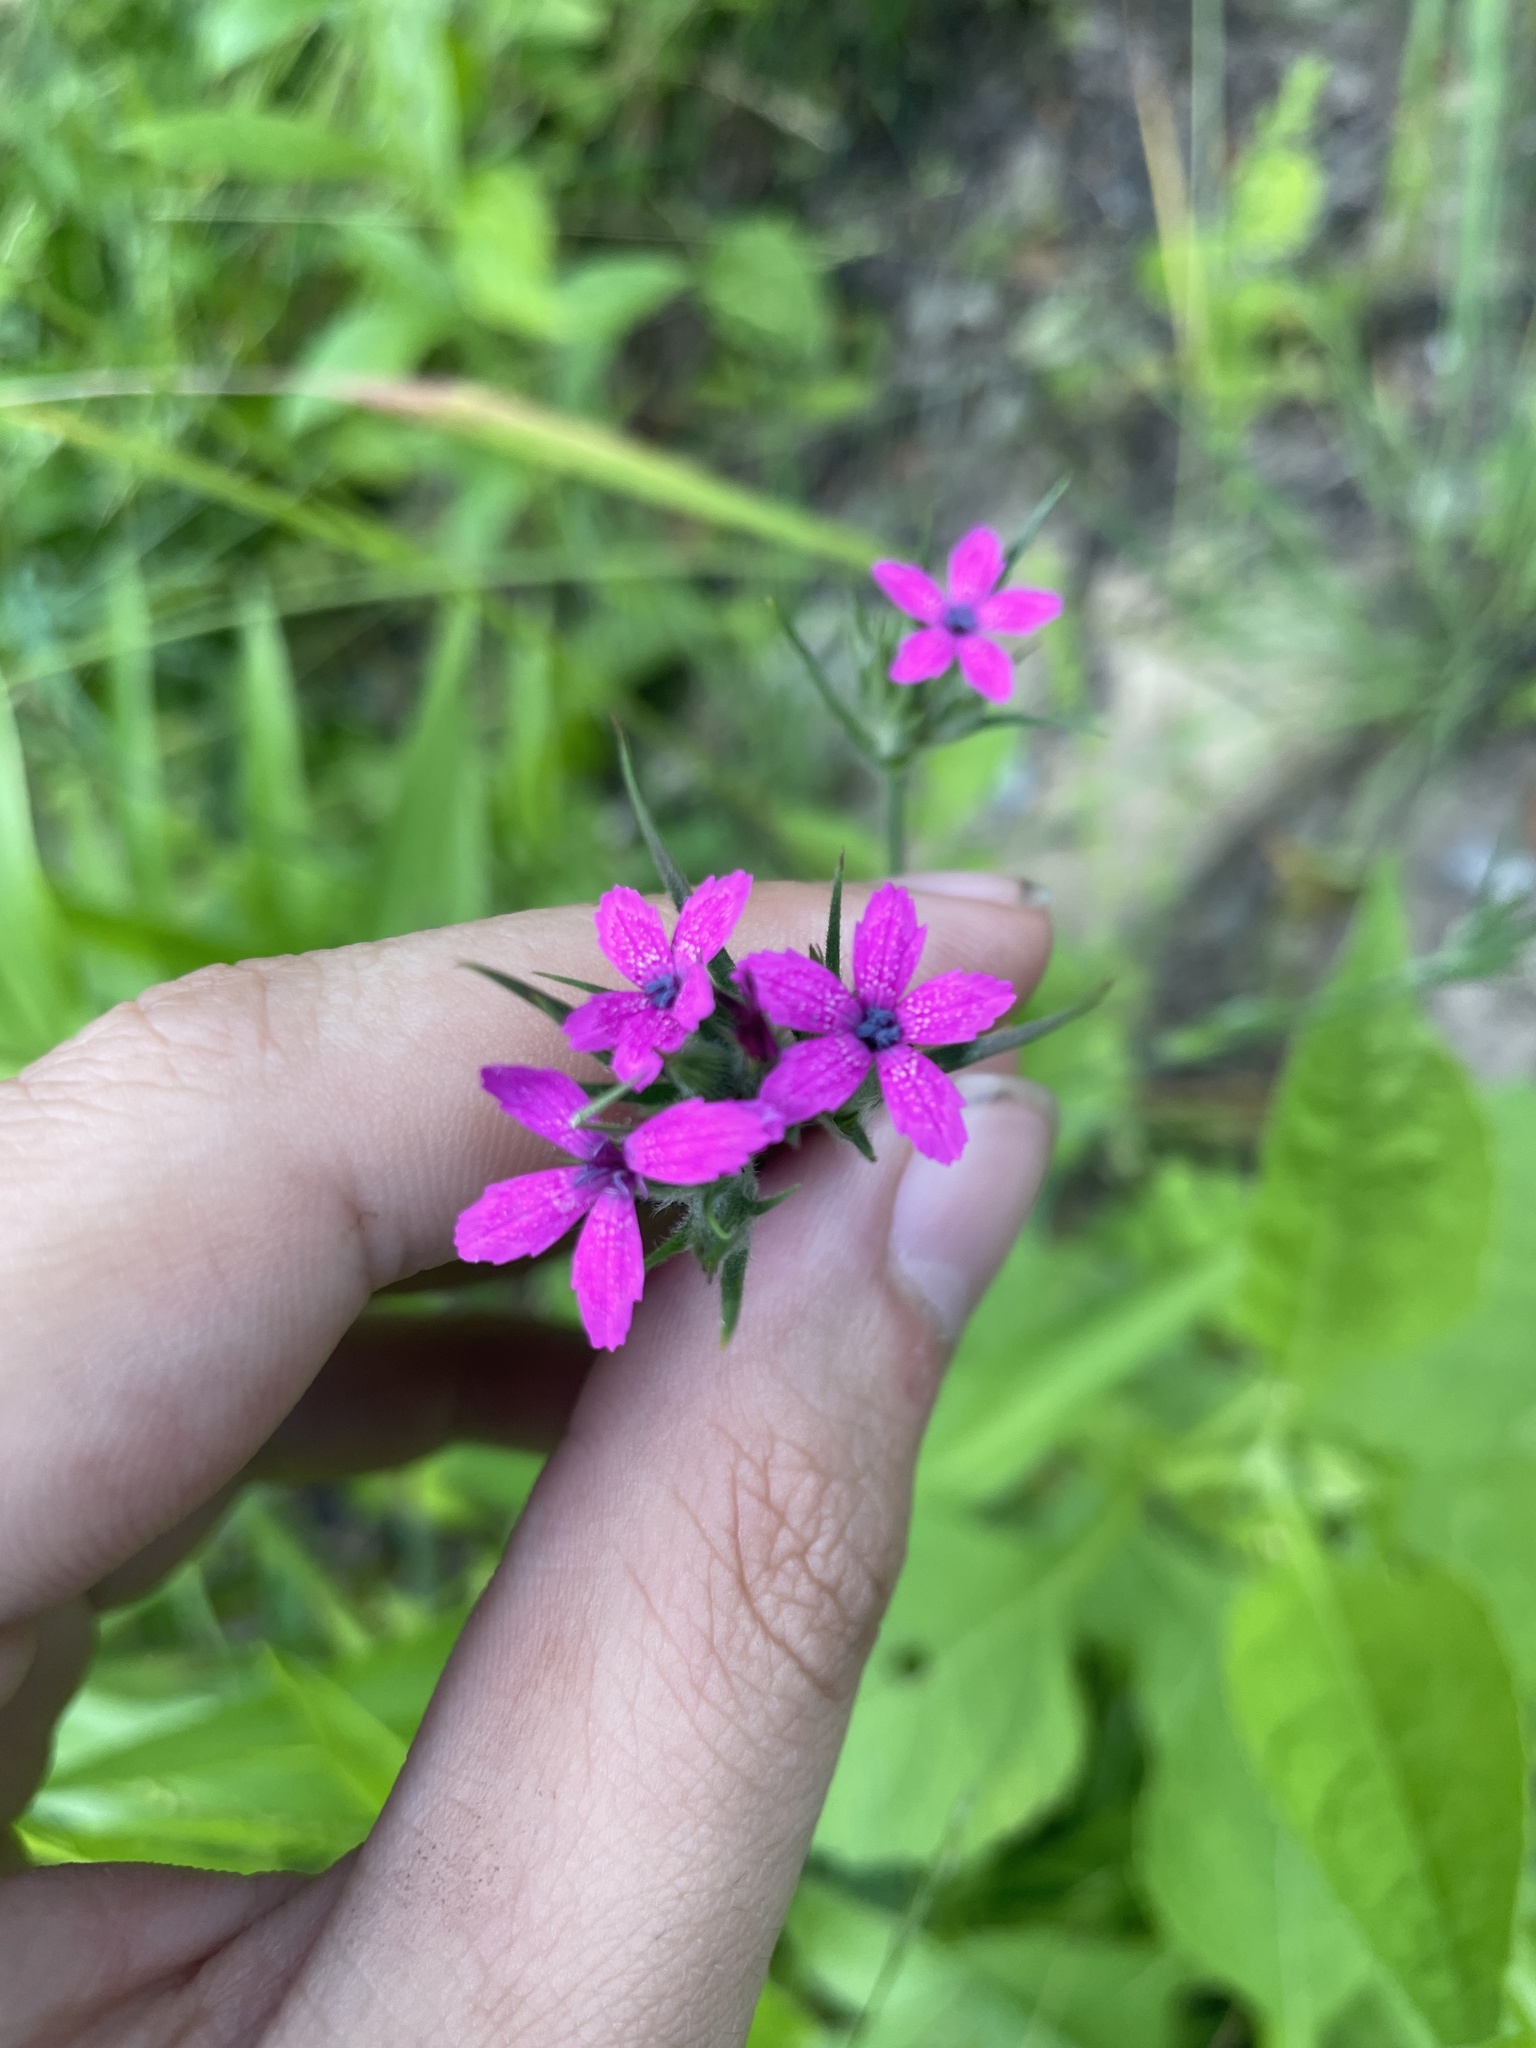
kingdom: Plantae
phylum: Tracheophyta
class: Magnoliopsida
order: Caryophyllales
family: Caryophyllaceae
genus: Dianthus
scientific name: Dianthus armeria
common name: Deptford pink
